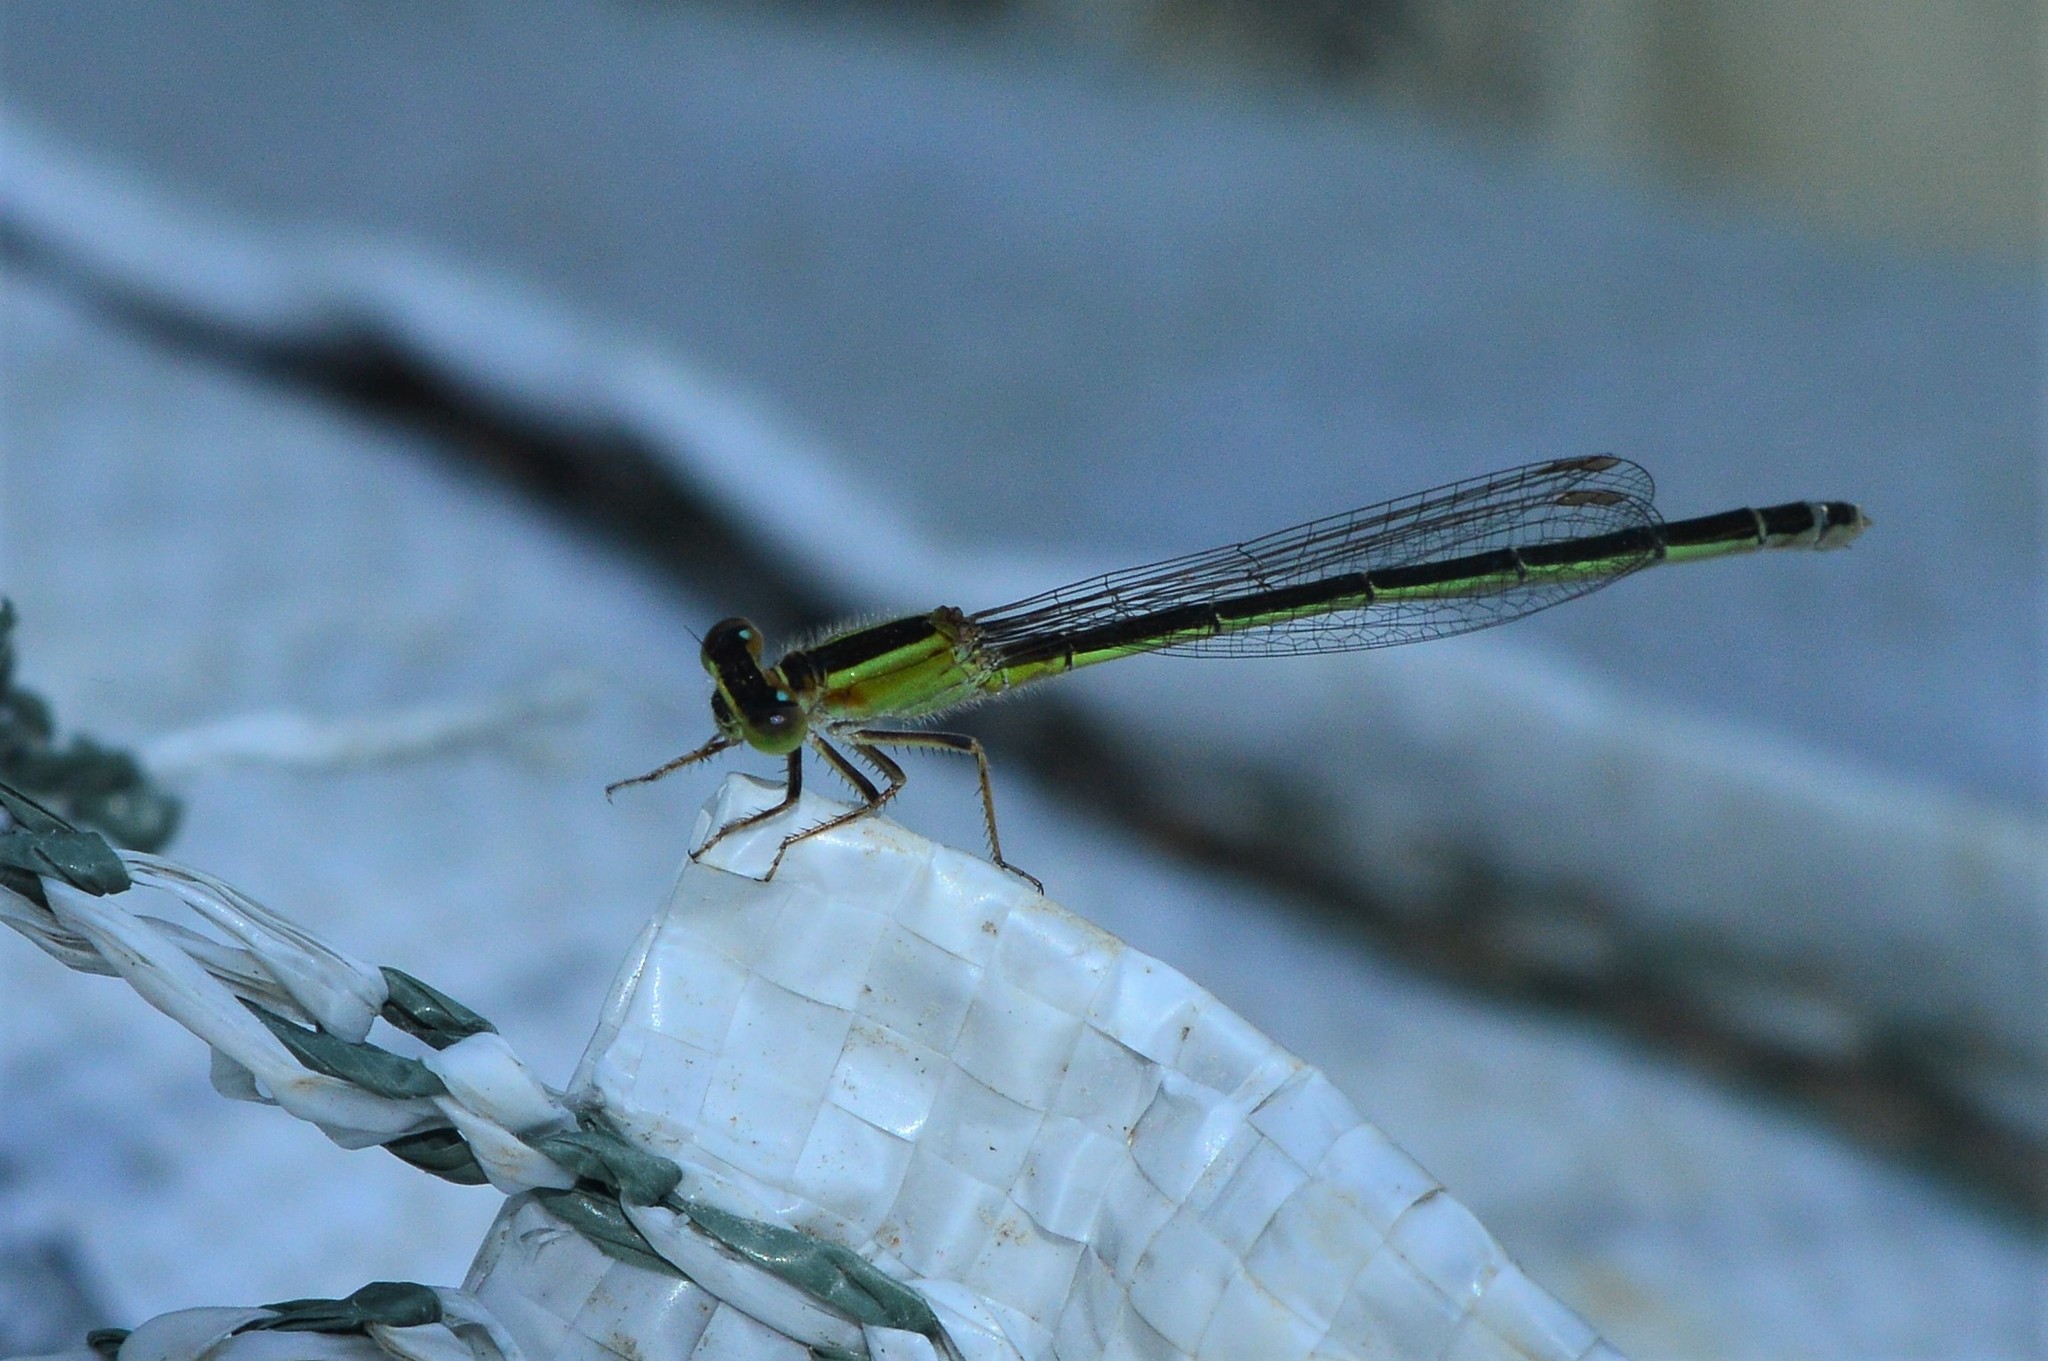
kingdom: Animalia
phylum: Arthropoda
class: Insecta
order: Odonata
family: Coenagrionidae
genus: Ischnura
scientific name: Ischnura senegalensis
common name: Tropical bluetail
